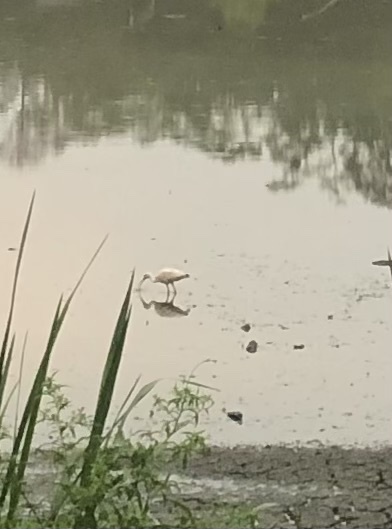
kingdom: Animalia
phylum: Chordata
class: Aves
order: Pelecaniformes
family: Threskiornithidae
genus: Eudocimus
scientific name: Eudocimus albus
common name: White ibis
